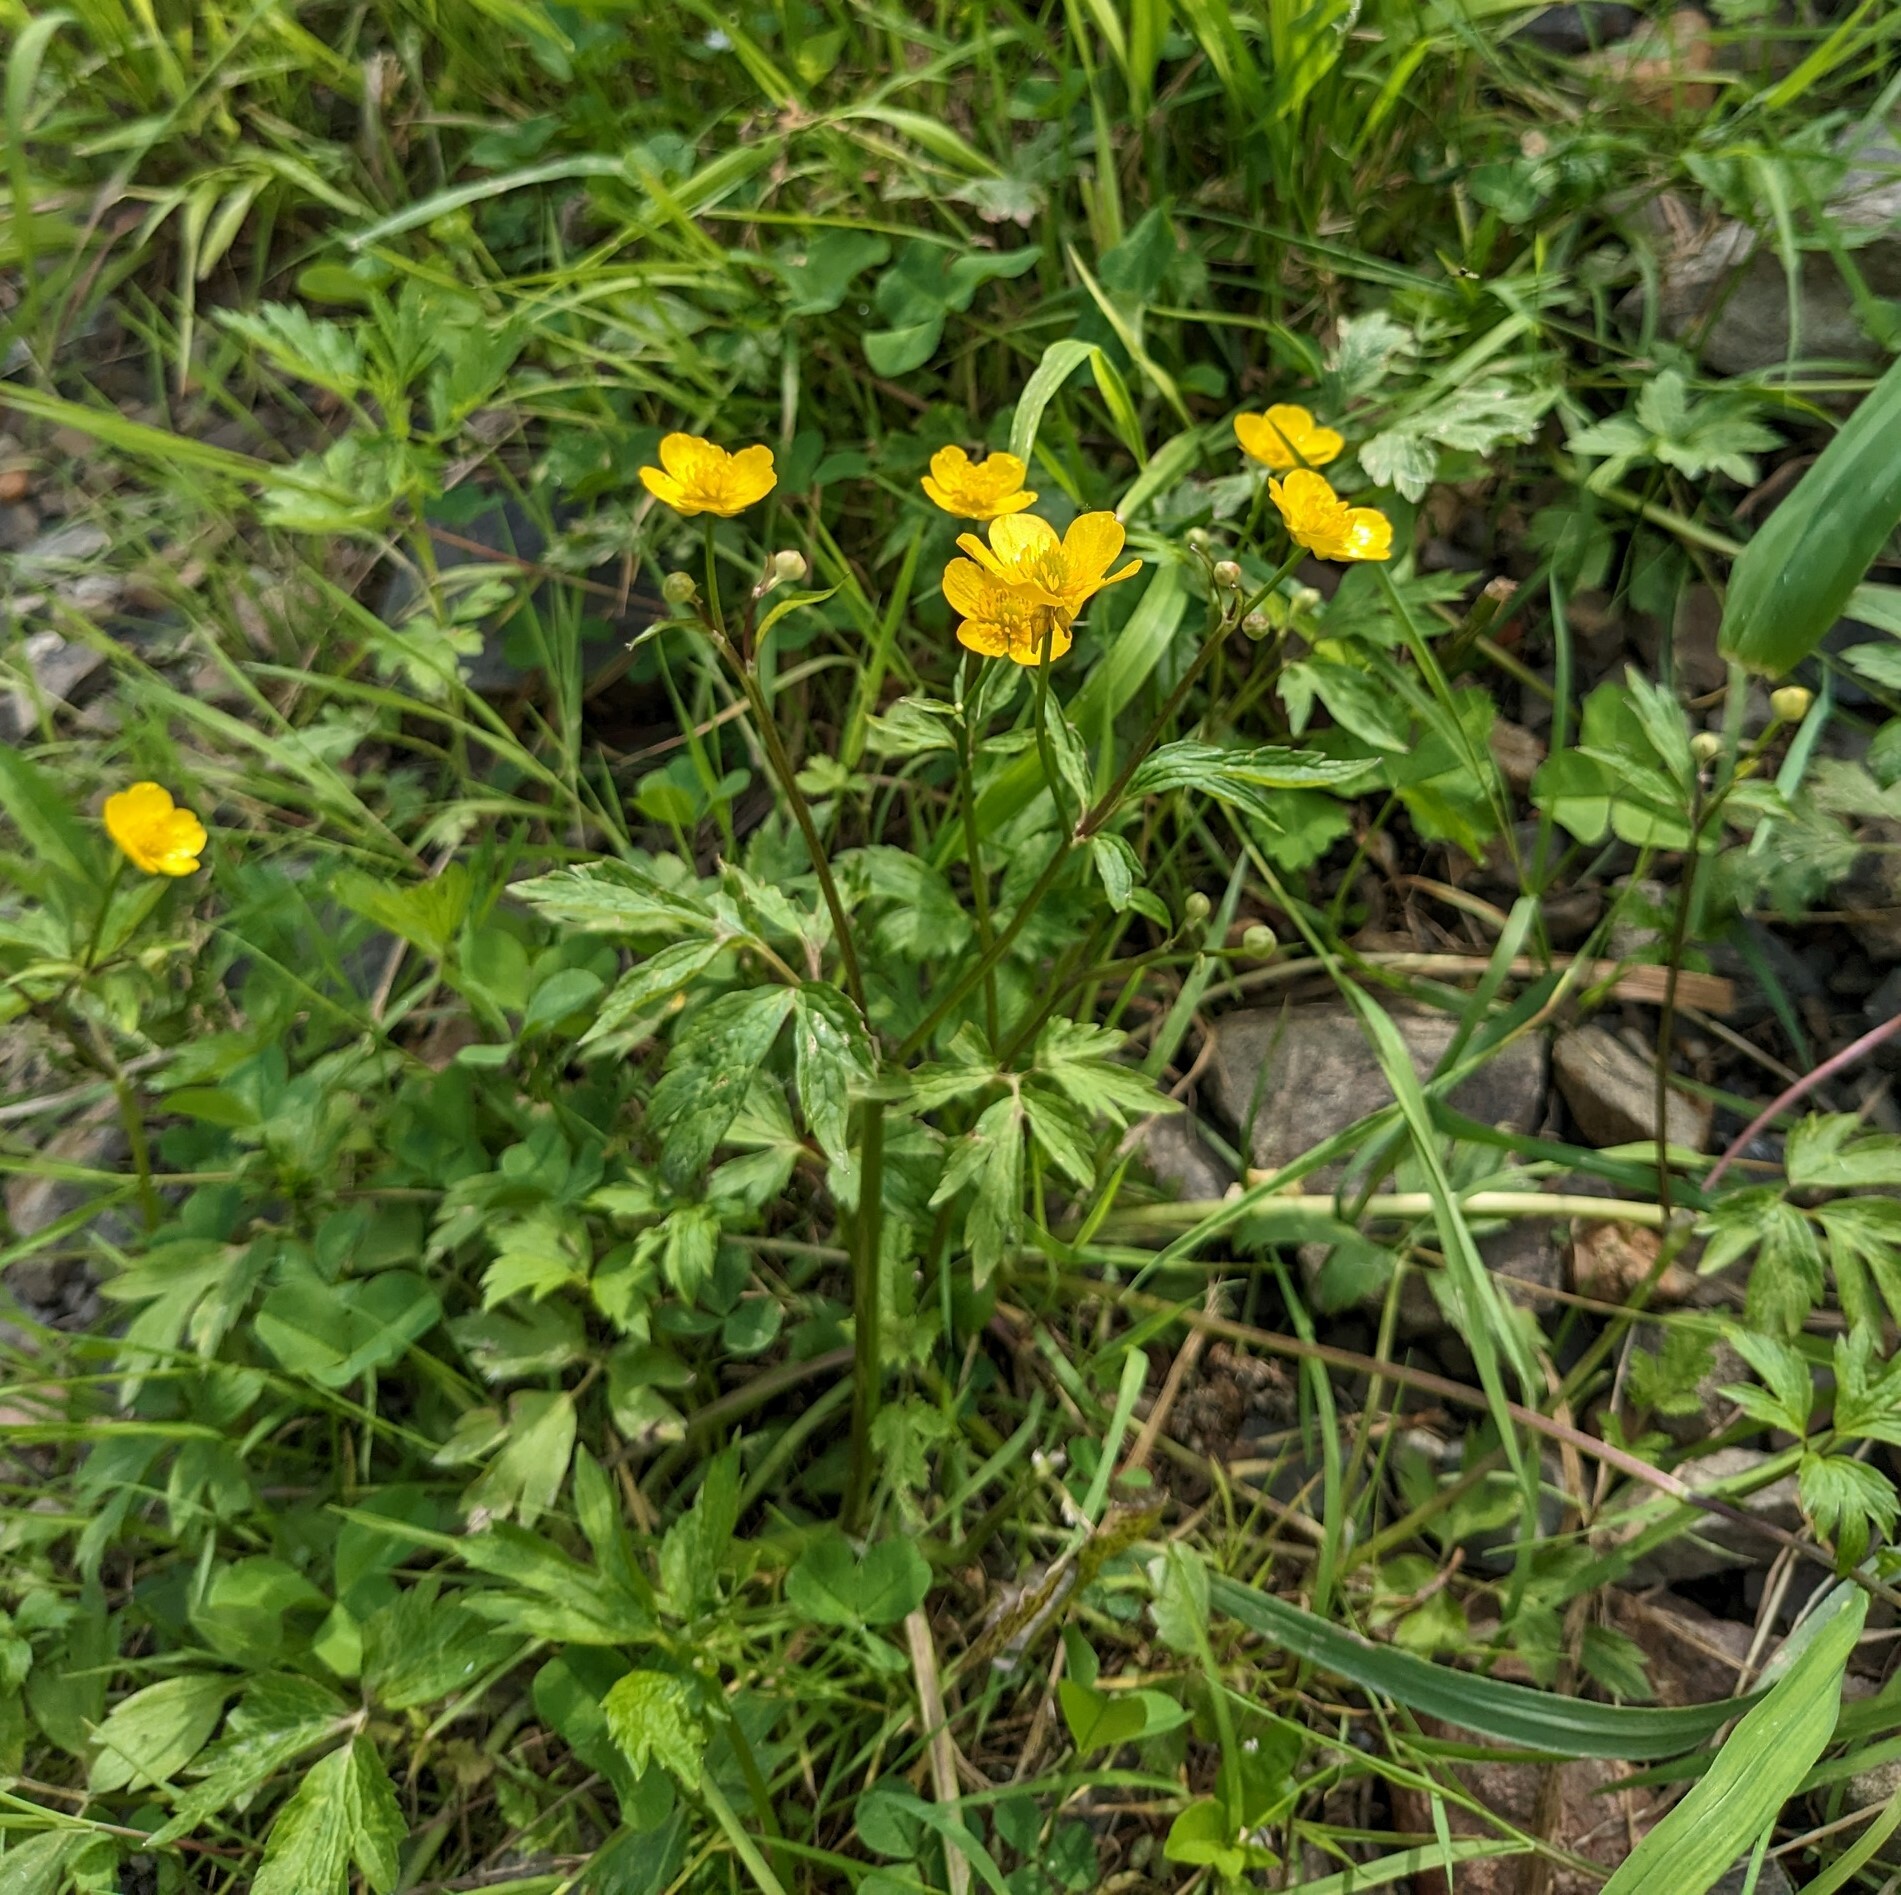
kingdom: Plantae
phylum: Tracheophyta
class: Magnoliopsida
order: Ranunculales
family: Ranunculaceae
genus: Ranunculus
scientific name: Ranunculus repens
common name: Creeping buttercup
